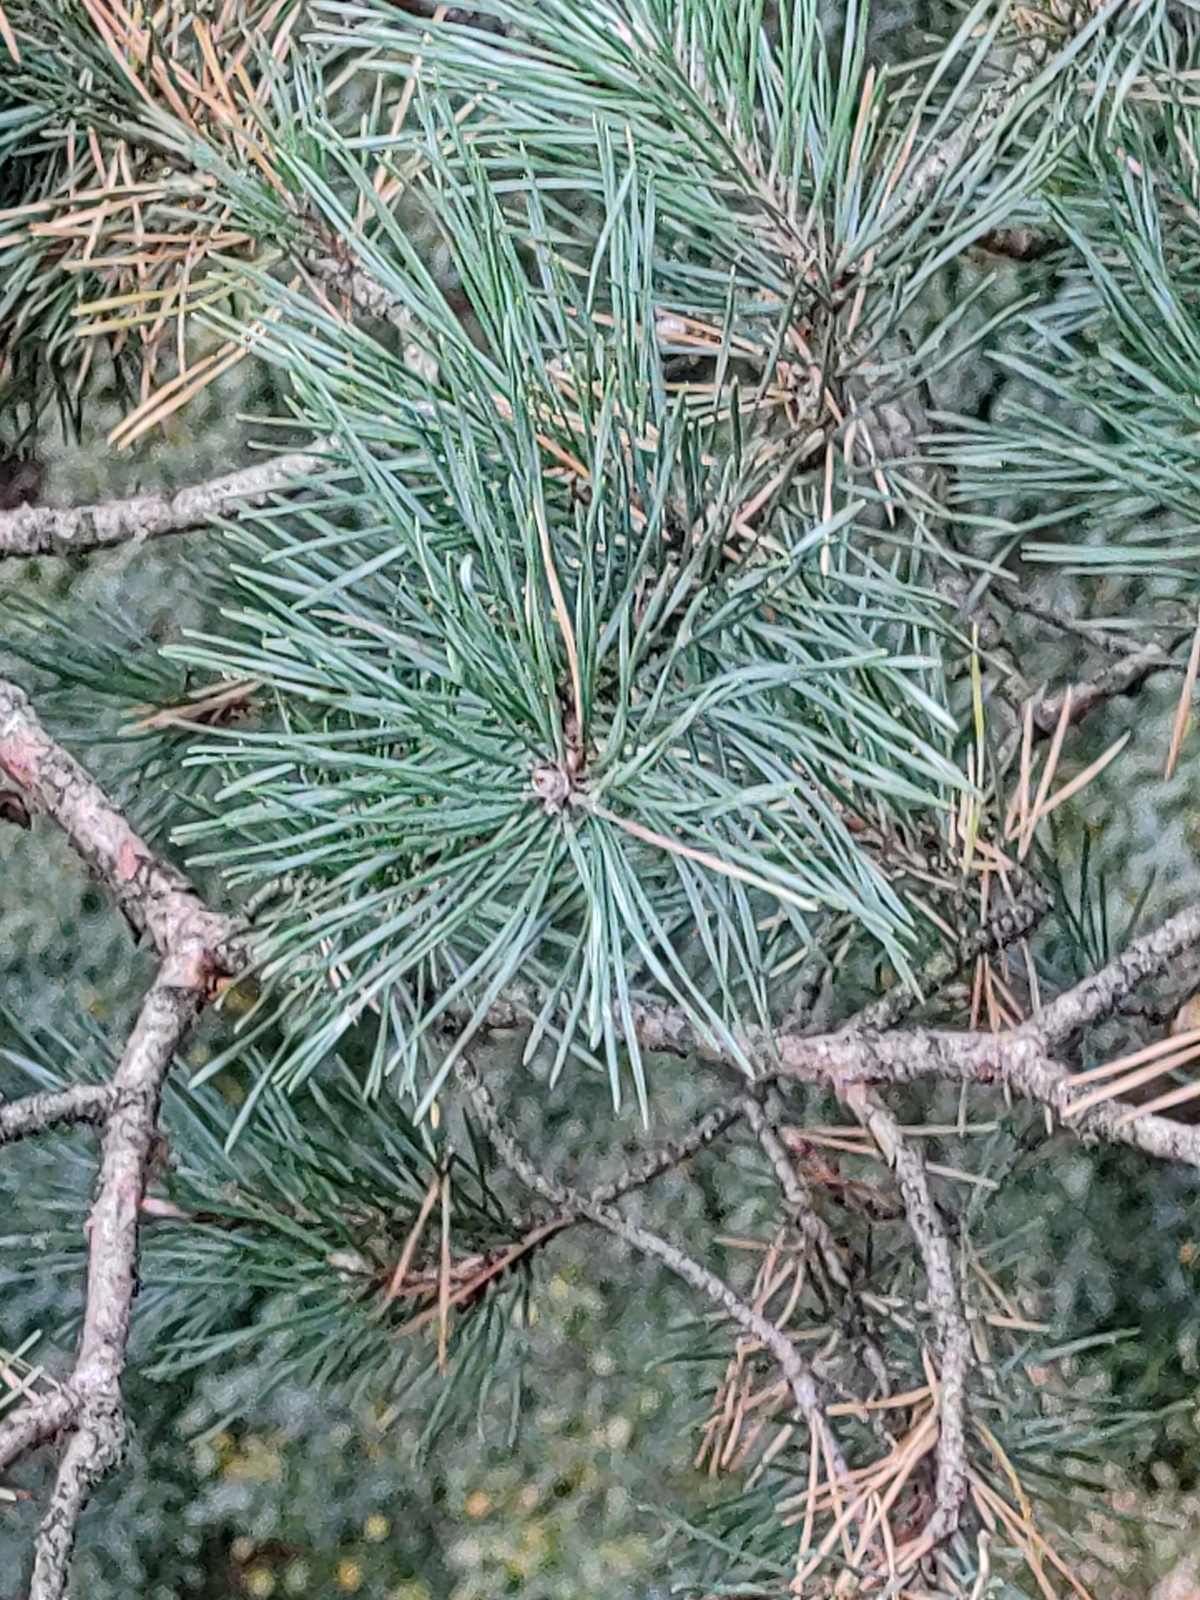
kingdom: Plantae
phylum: Tracheophyta
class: Pinopsida
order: Pinales
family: Pinaceae
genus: Pinus
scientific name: Pinus sylvestris
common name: Scots pine
